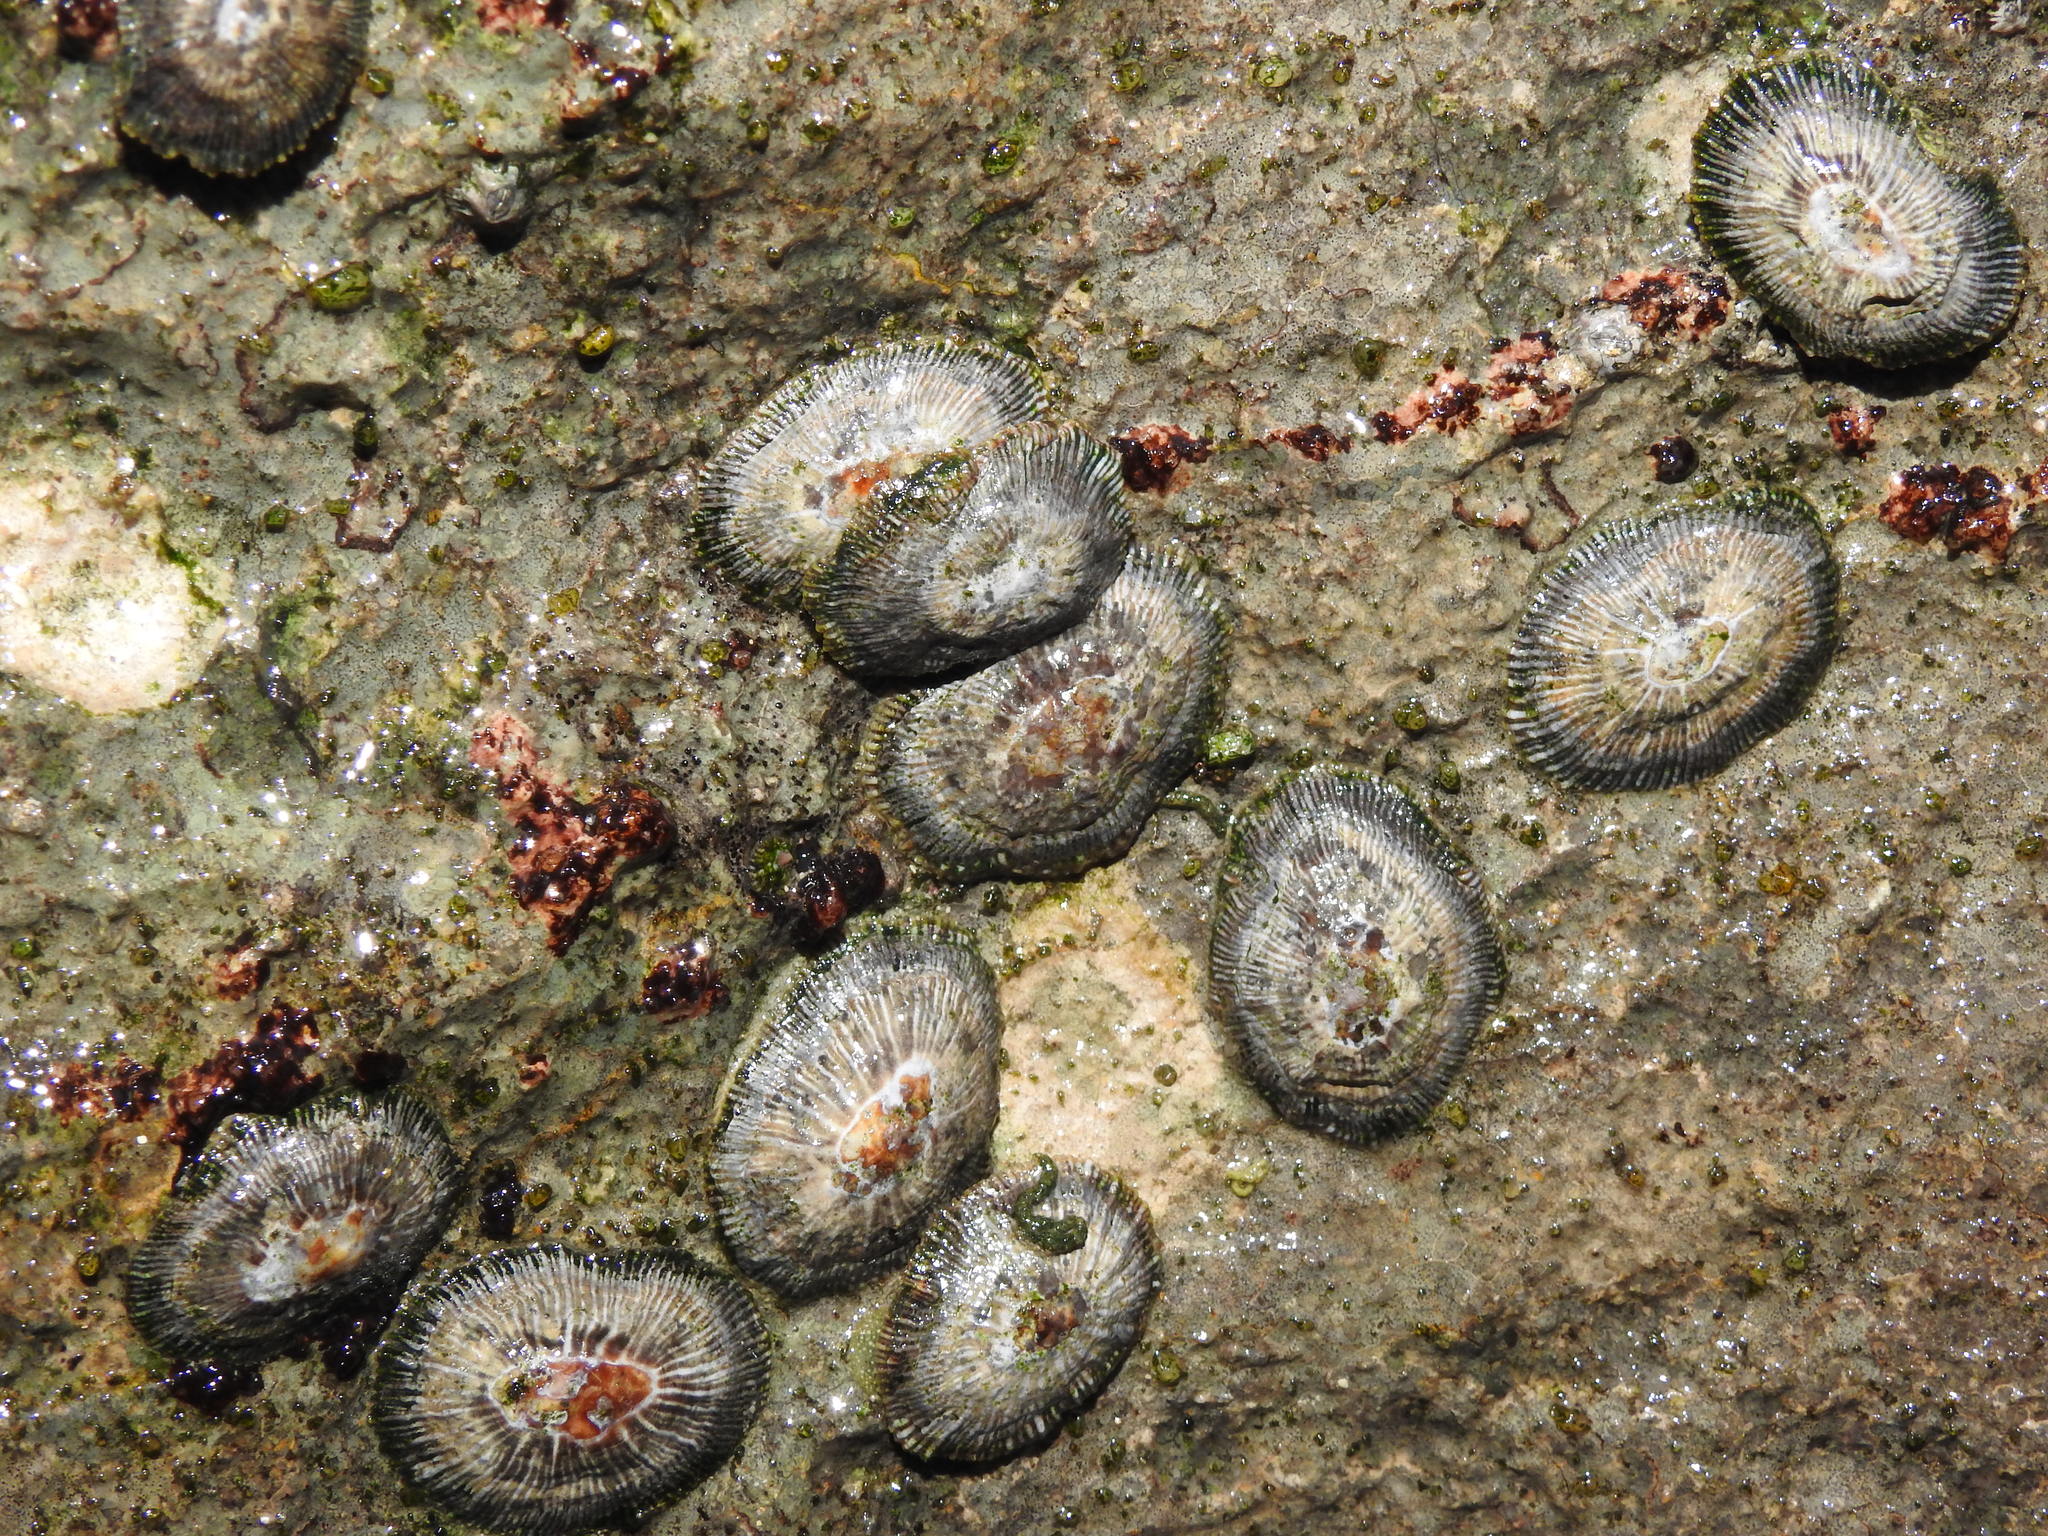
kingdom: Animalia
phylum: Mollusca
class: Gastropoda
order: Siphonariida
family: Siphonariidae
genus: Siphonaria
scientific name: Siphonaria pectinata
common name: Striped false limpet
